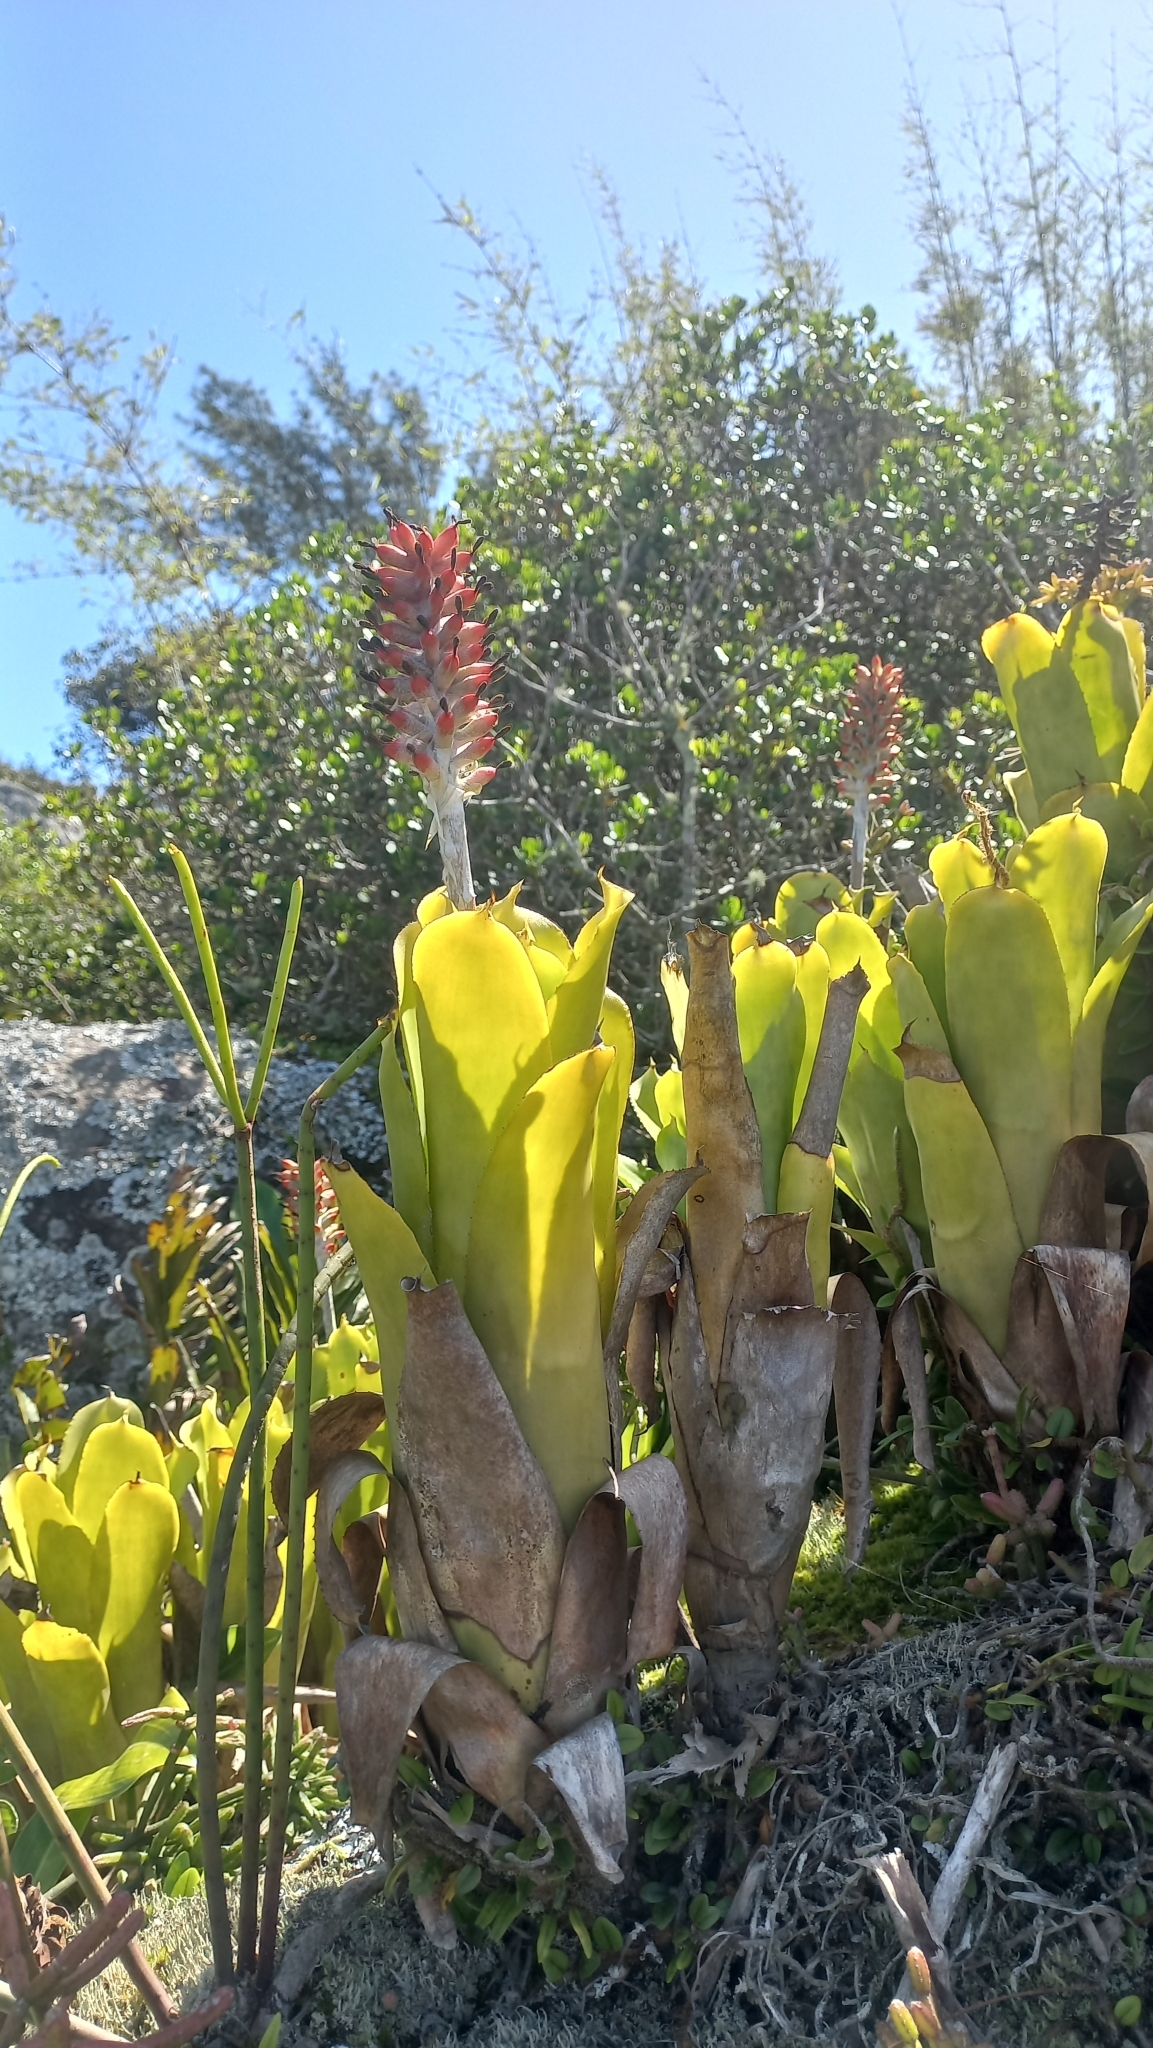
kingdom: Plantae
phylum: Tracheophyta
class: Liliopsida
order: Poales
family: Bromeliaceae
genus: Aechmea
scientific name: Aechmea comata
